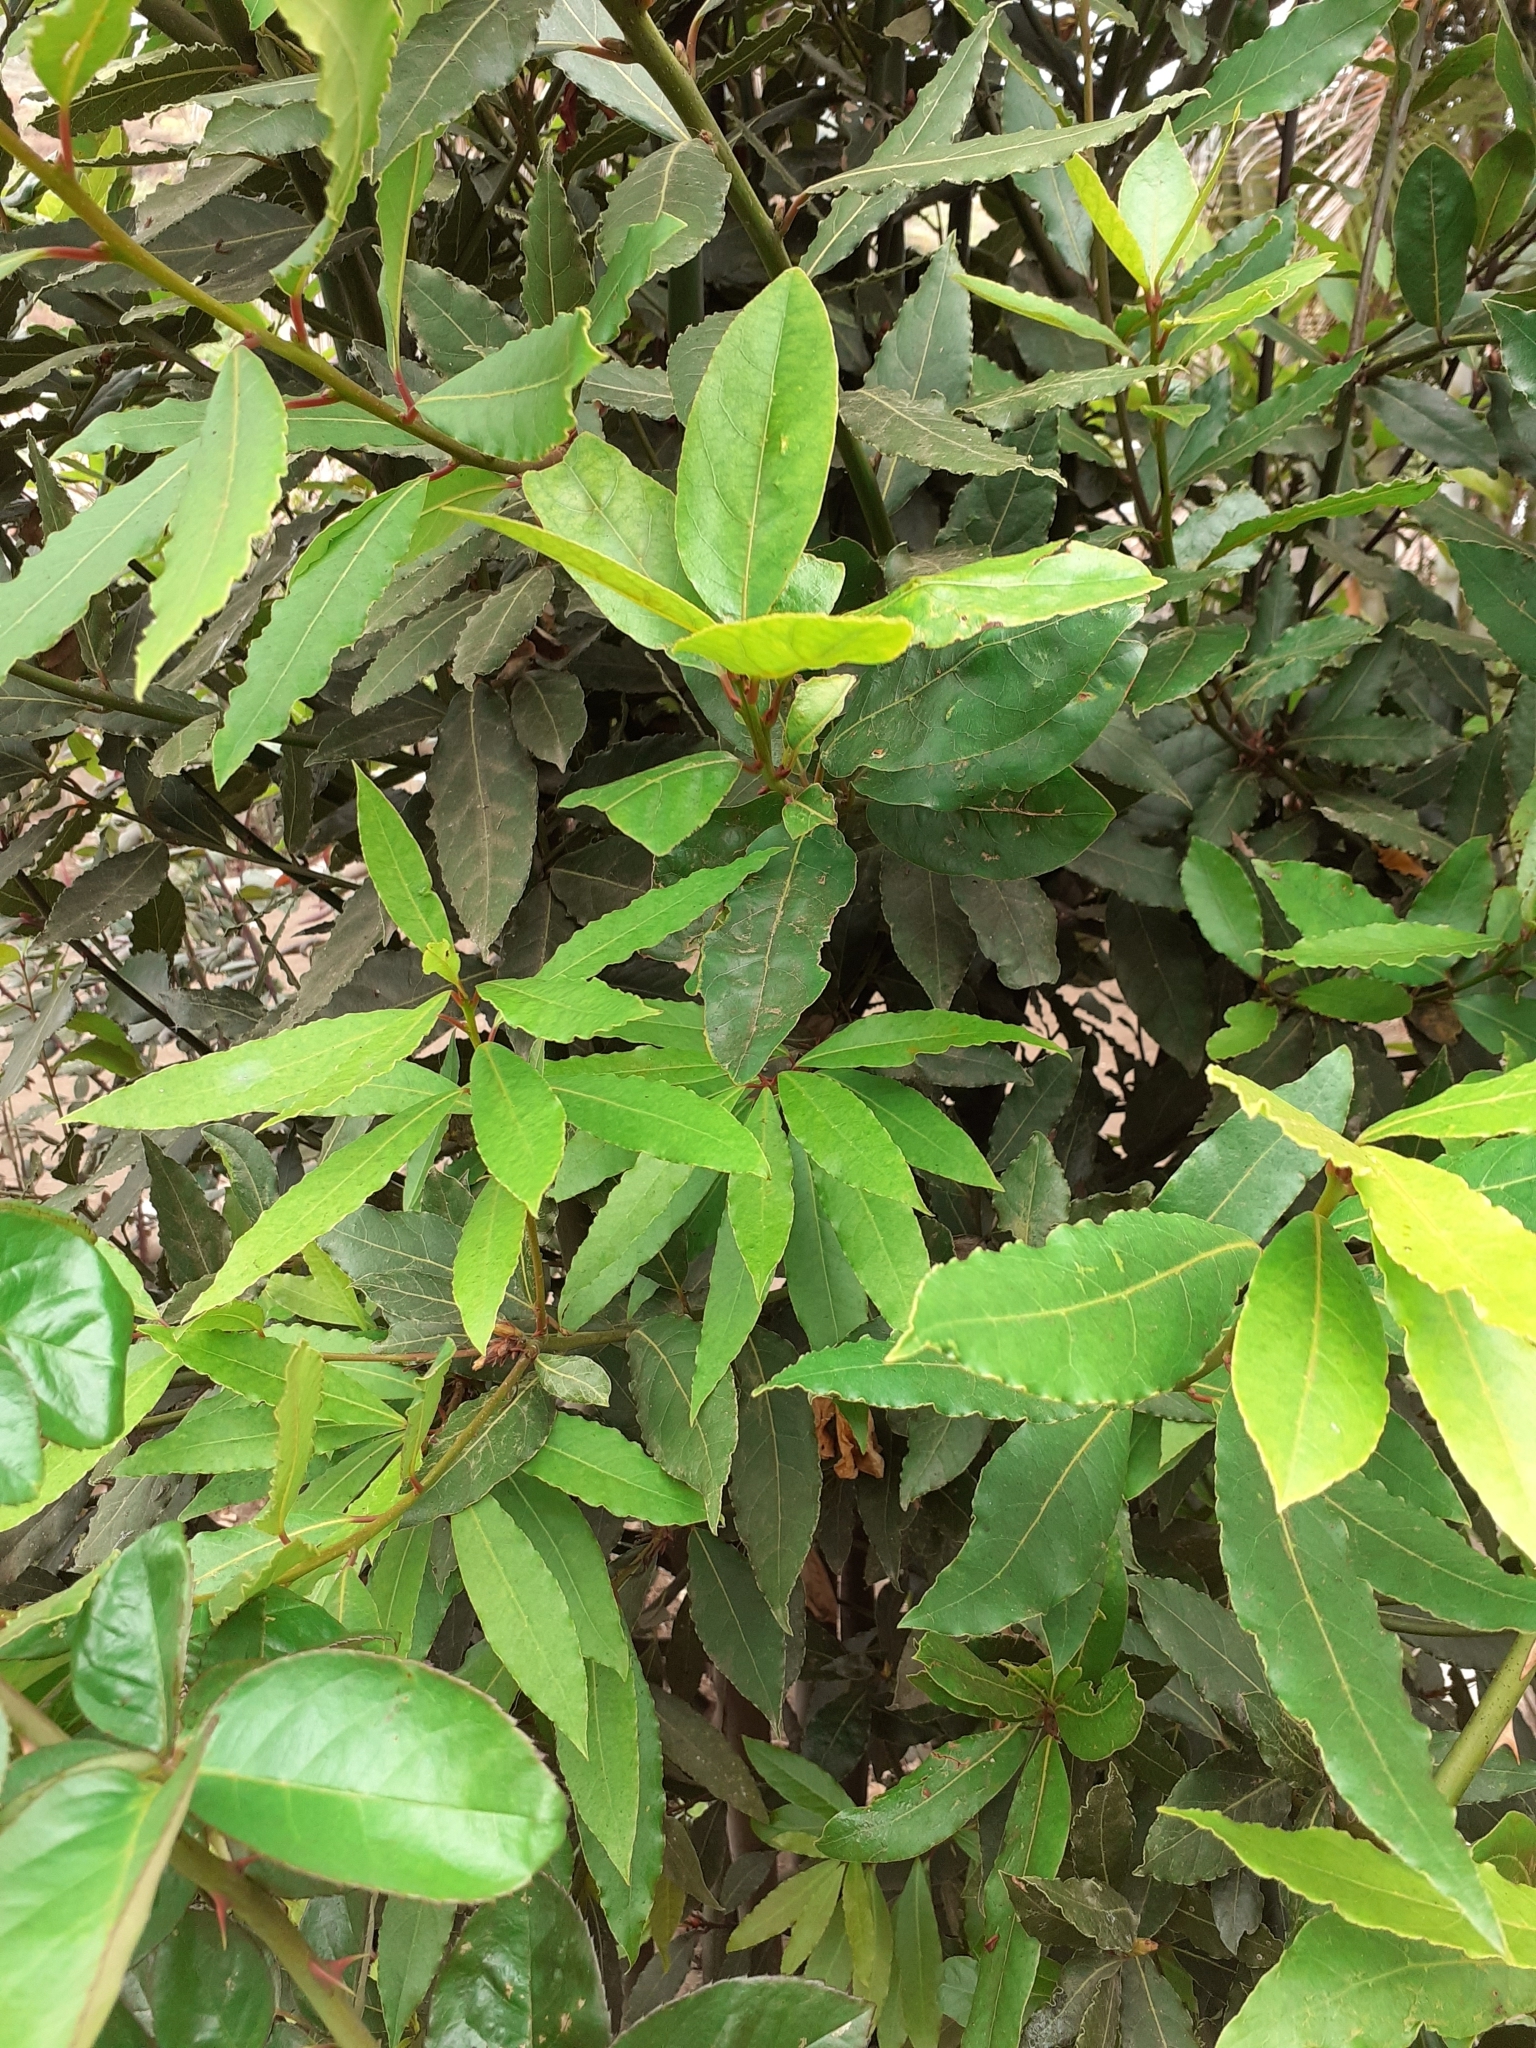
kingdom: Plantae
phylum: Tracheophyta
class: Magnoliopsida
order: Laurales
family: Lauraceae
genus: Laurus
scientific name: Laurus novocanariensis
